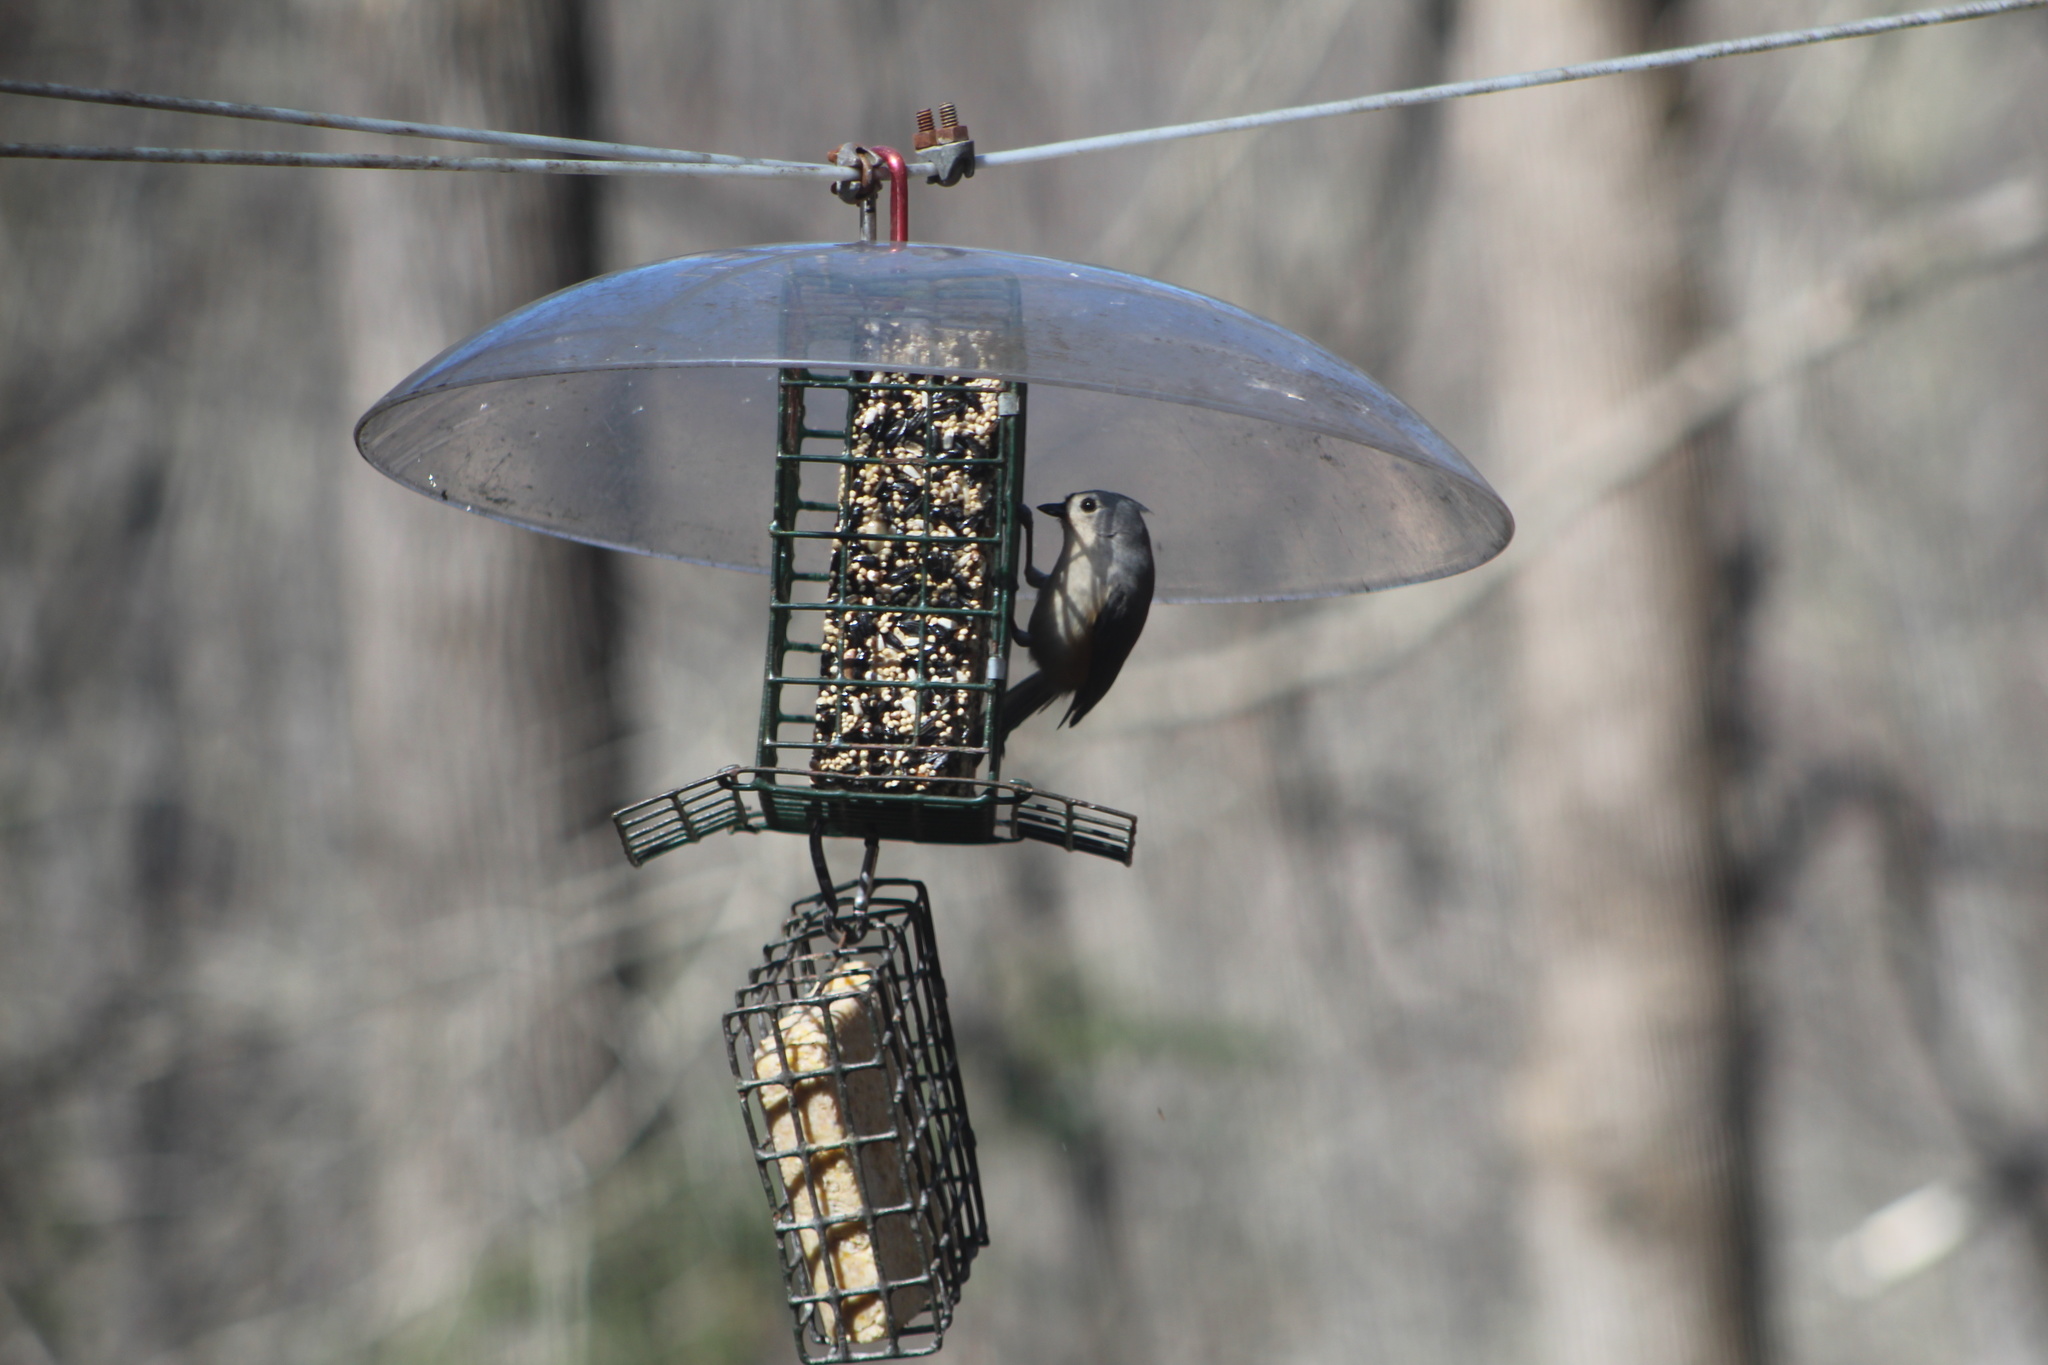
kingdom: Animalia
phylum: Chordata
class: Aves
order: Passeriformes
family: Paridae
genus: Baeolophus
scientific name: Baeolophus bicolor
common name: Tufted titmouse
